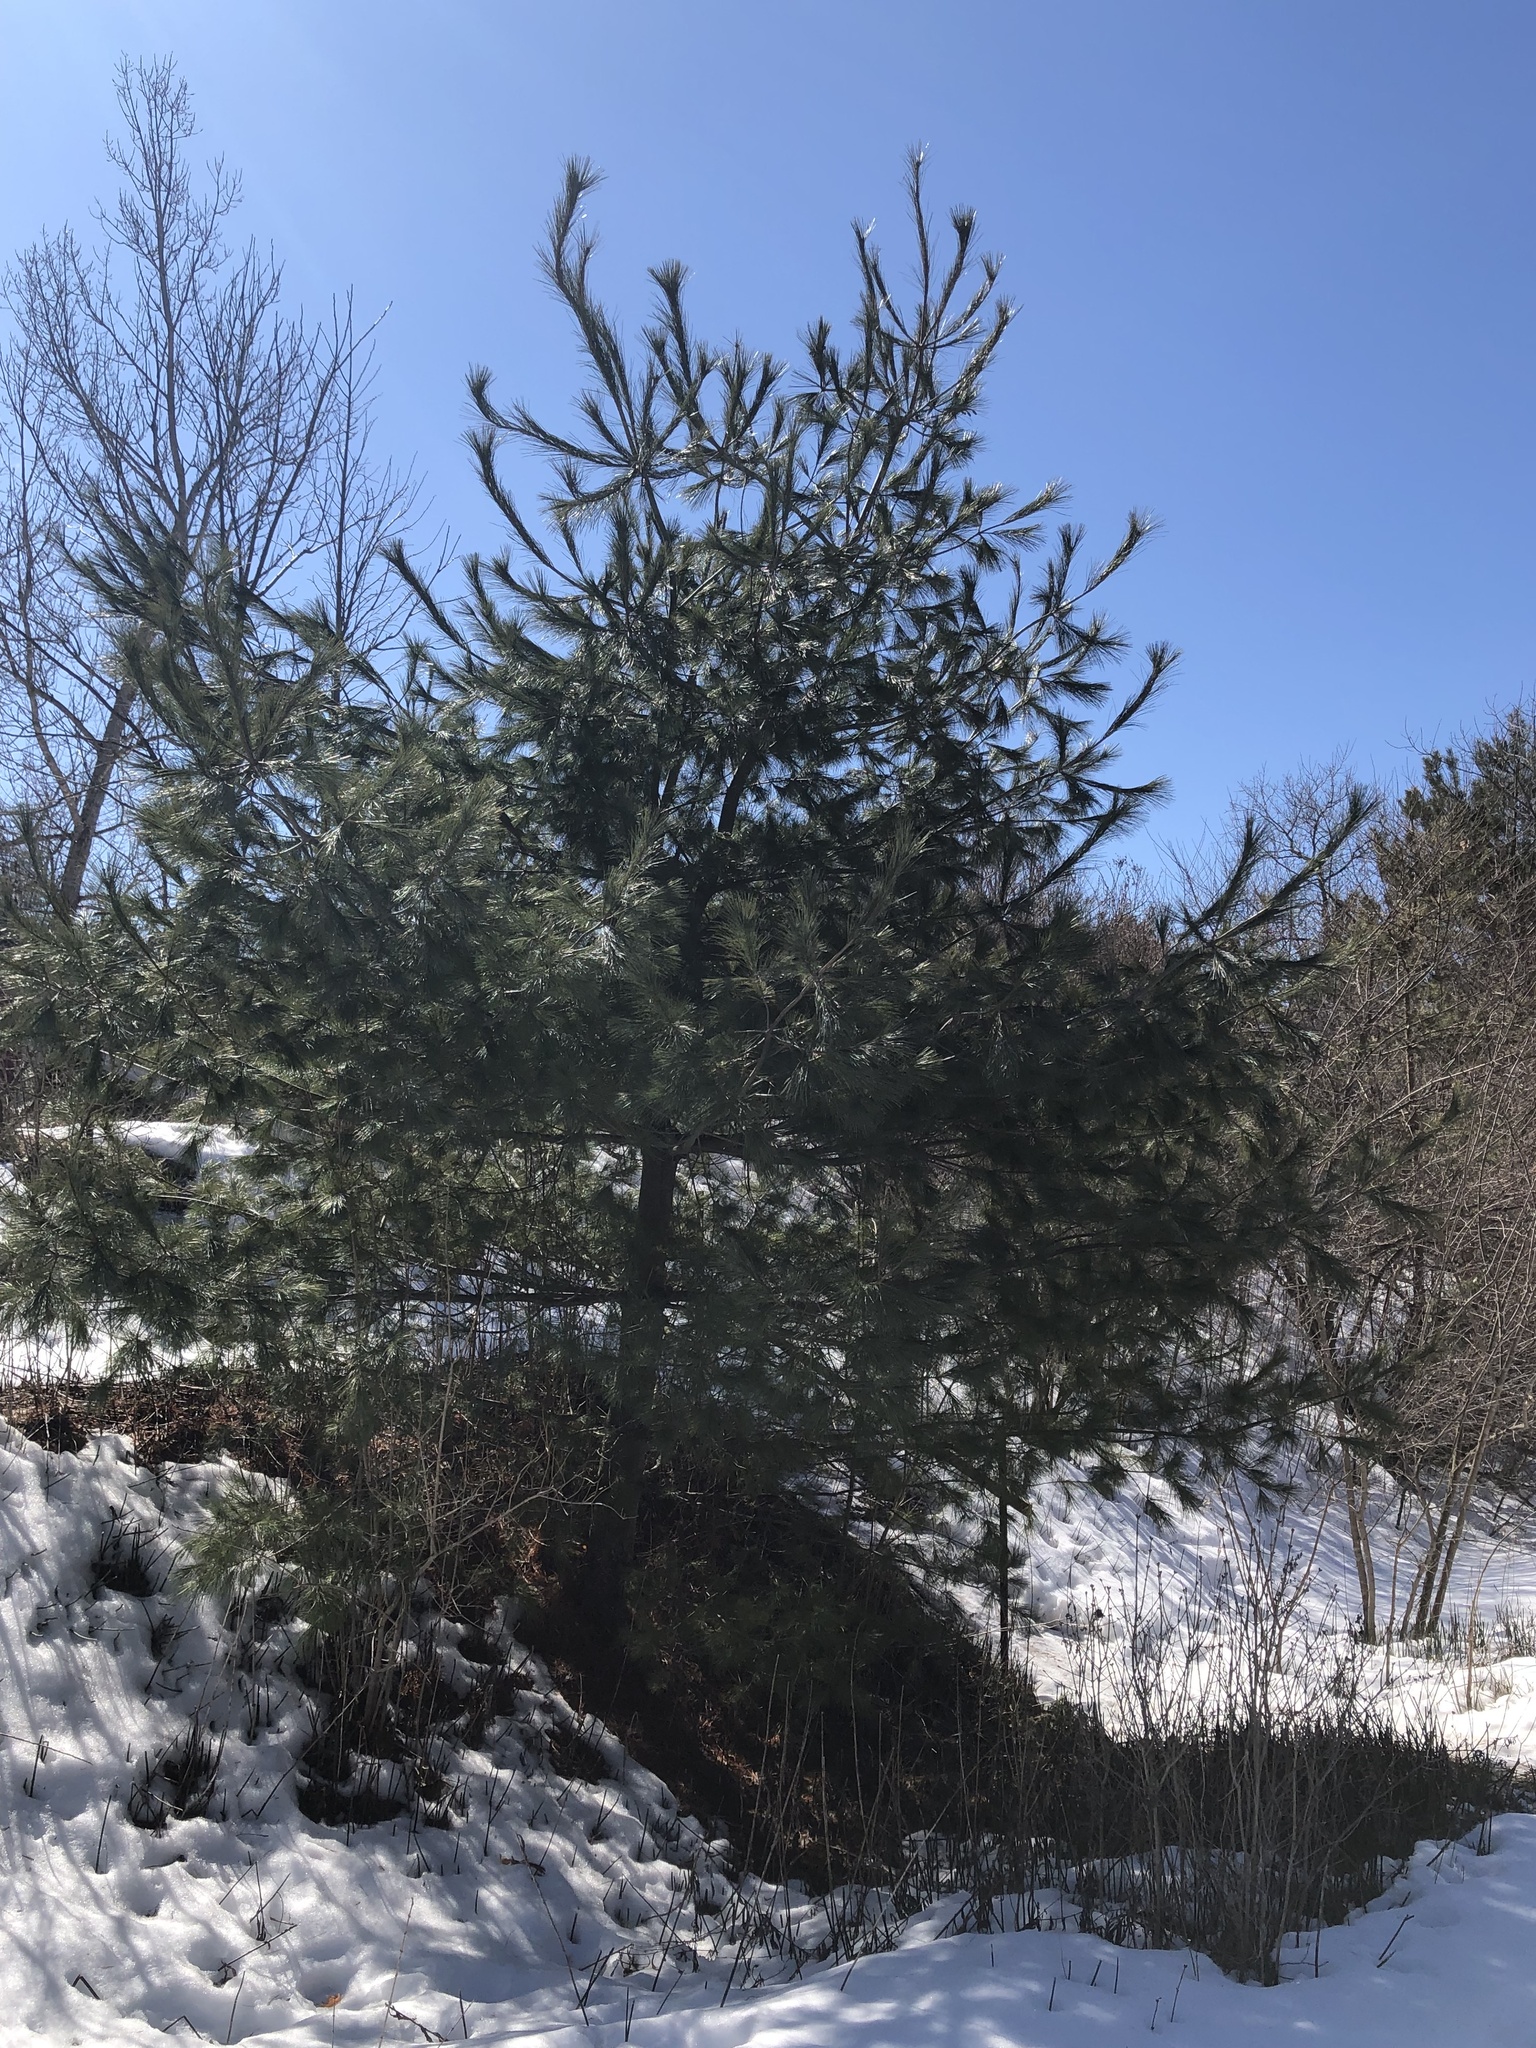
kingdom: Plantae
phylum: Tracheophyta
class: Pinopsida
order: Pinales
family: Pinaceae
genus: Pinus
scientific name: Pinus strobus
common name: Weymouth pine
